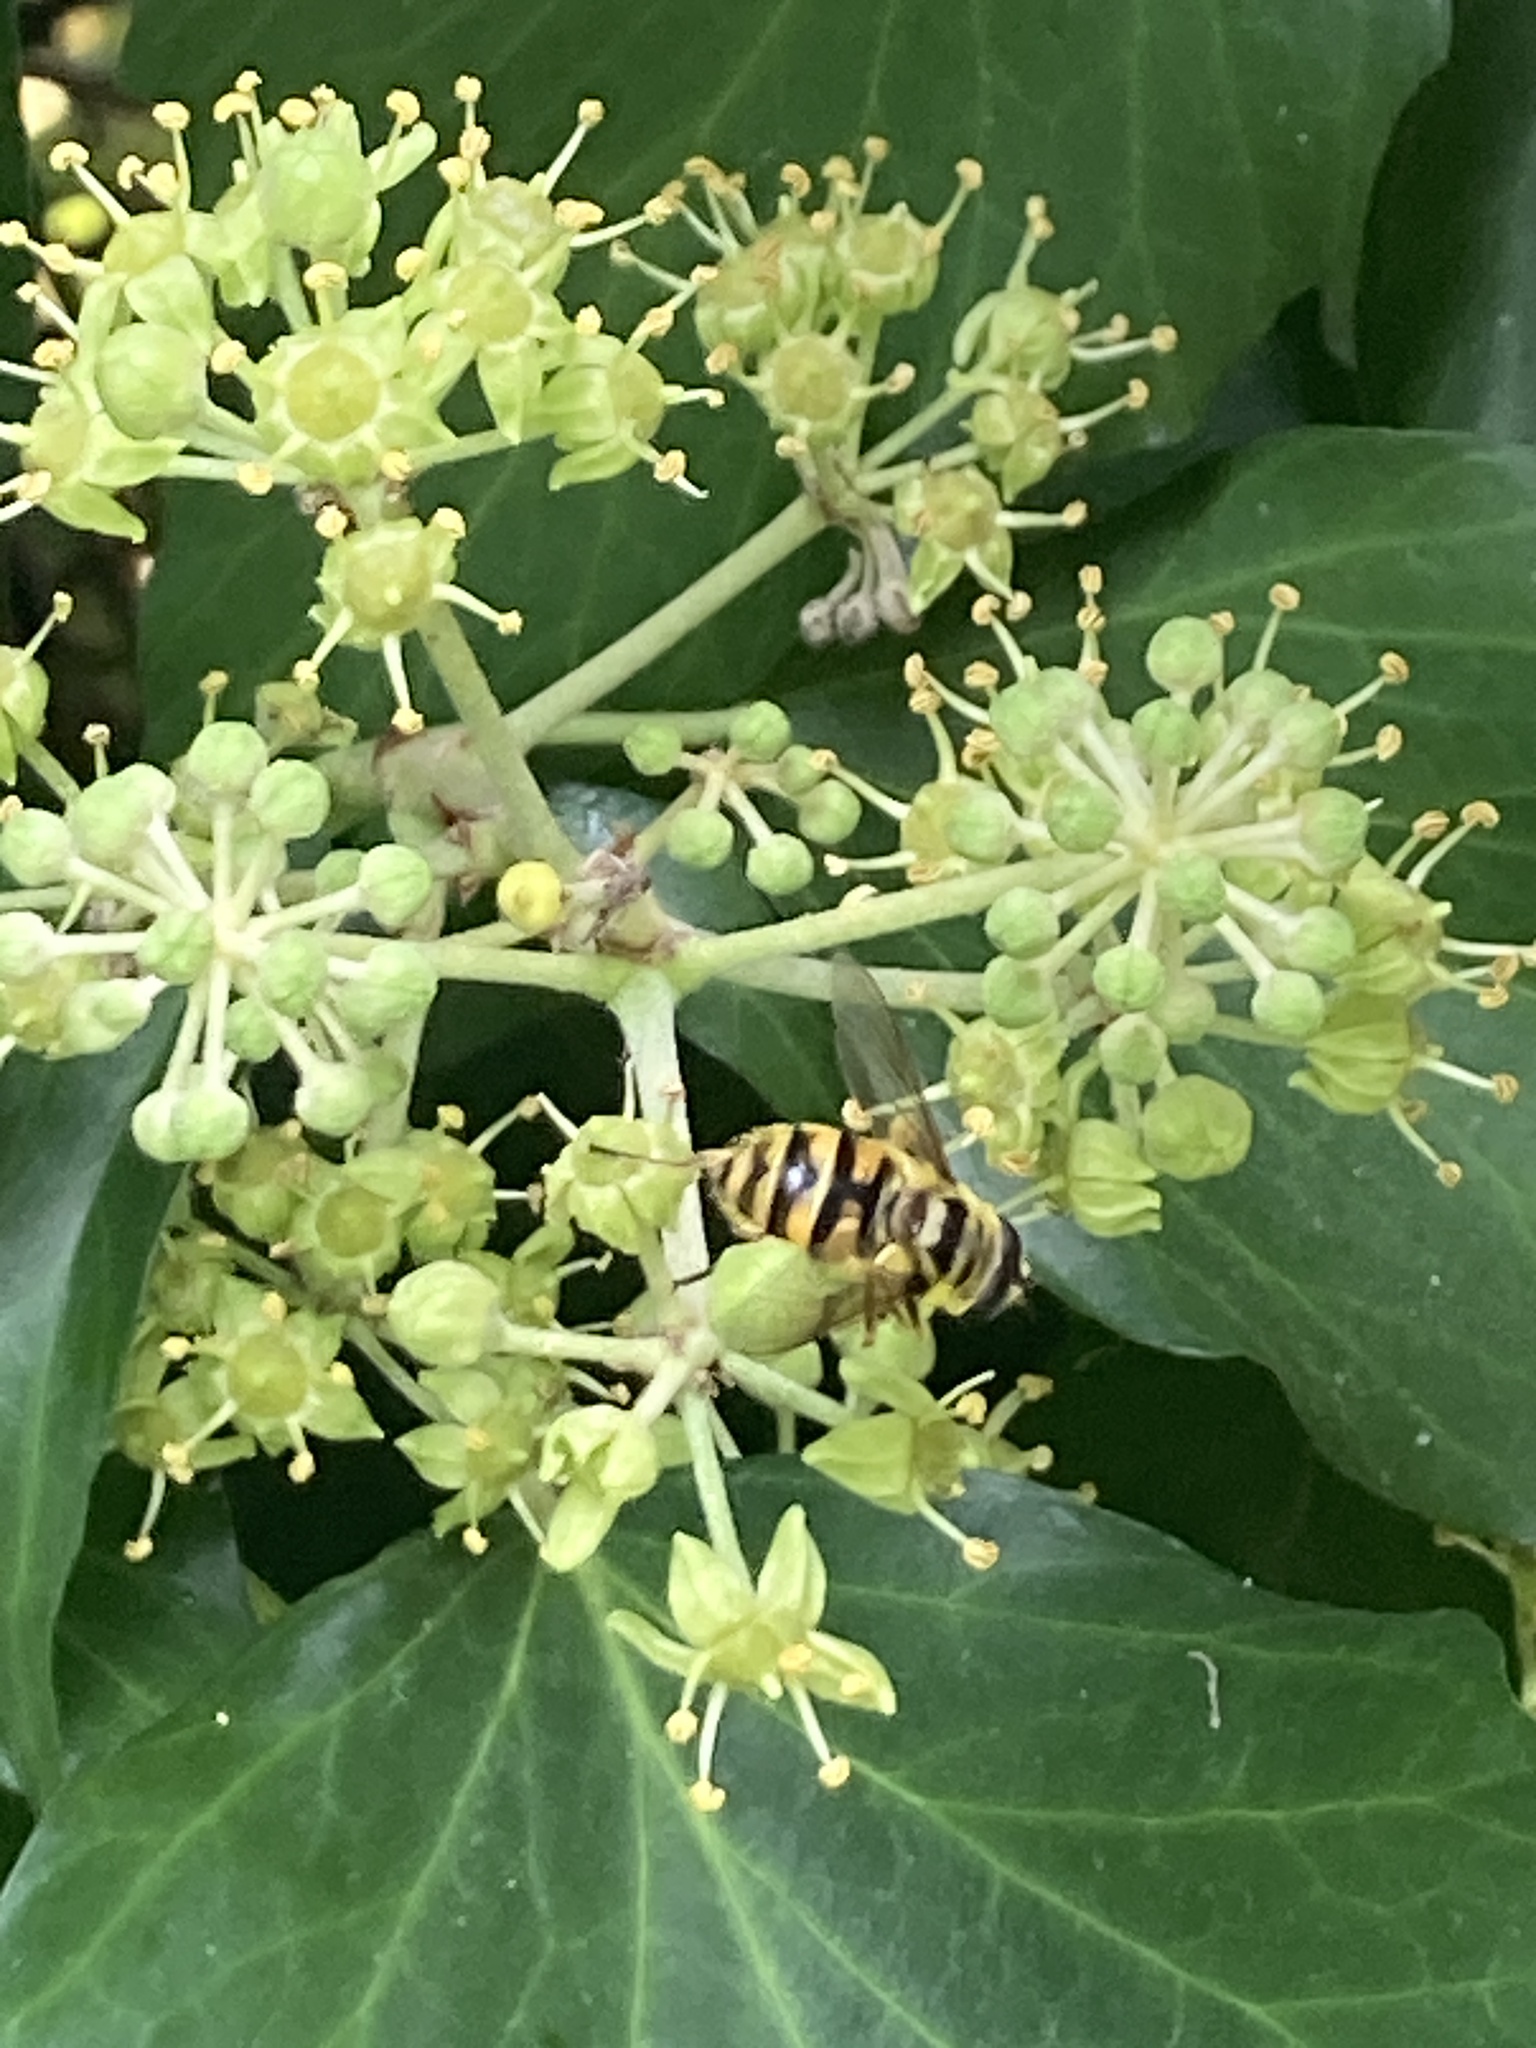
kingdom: Animalia
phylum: Arthropoda
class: Insecta
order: Diptera
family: Syrphidae
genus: Myathropa
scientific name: Myathropa florea
